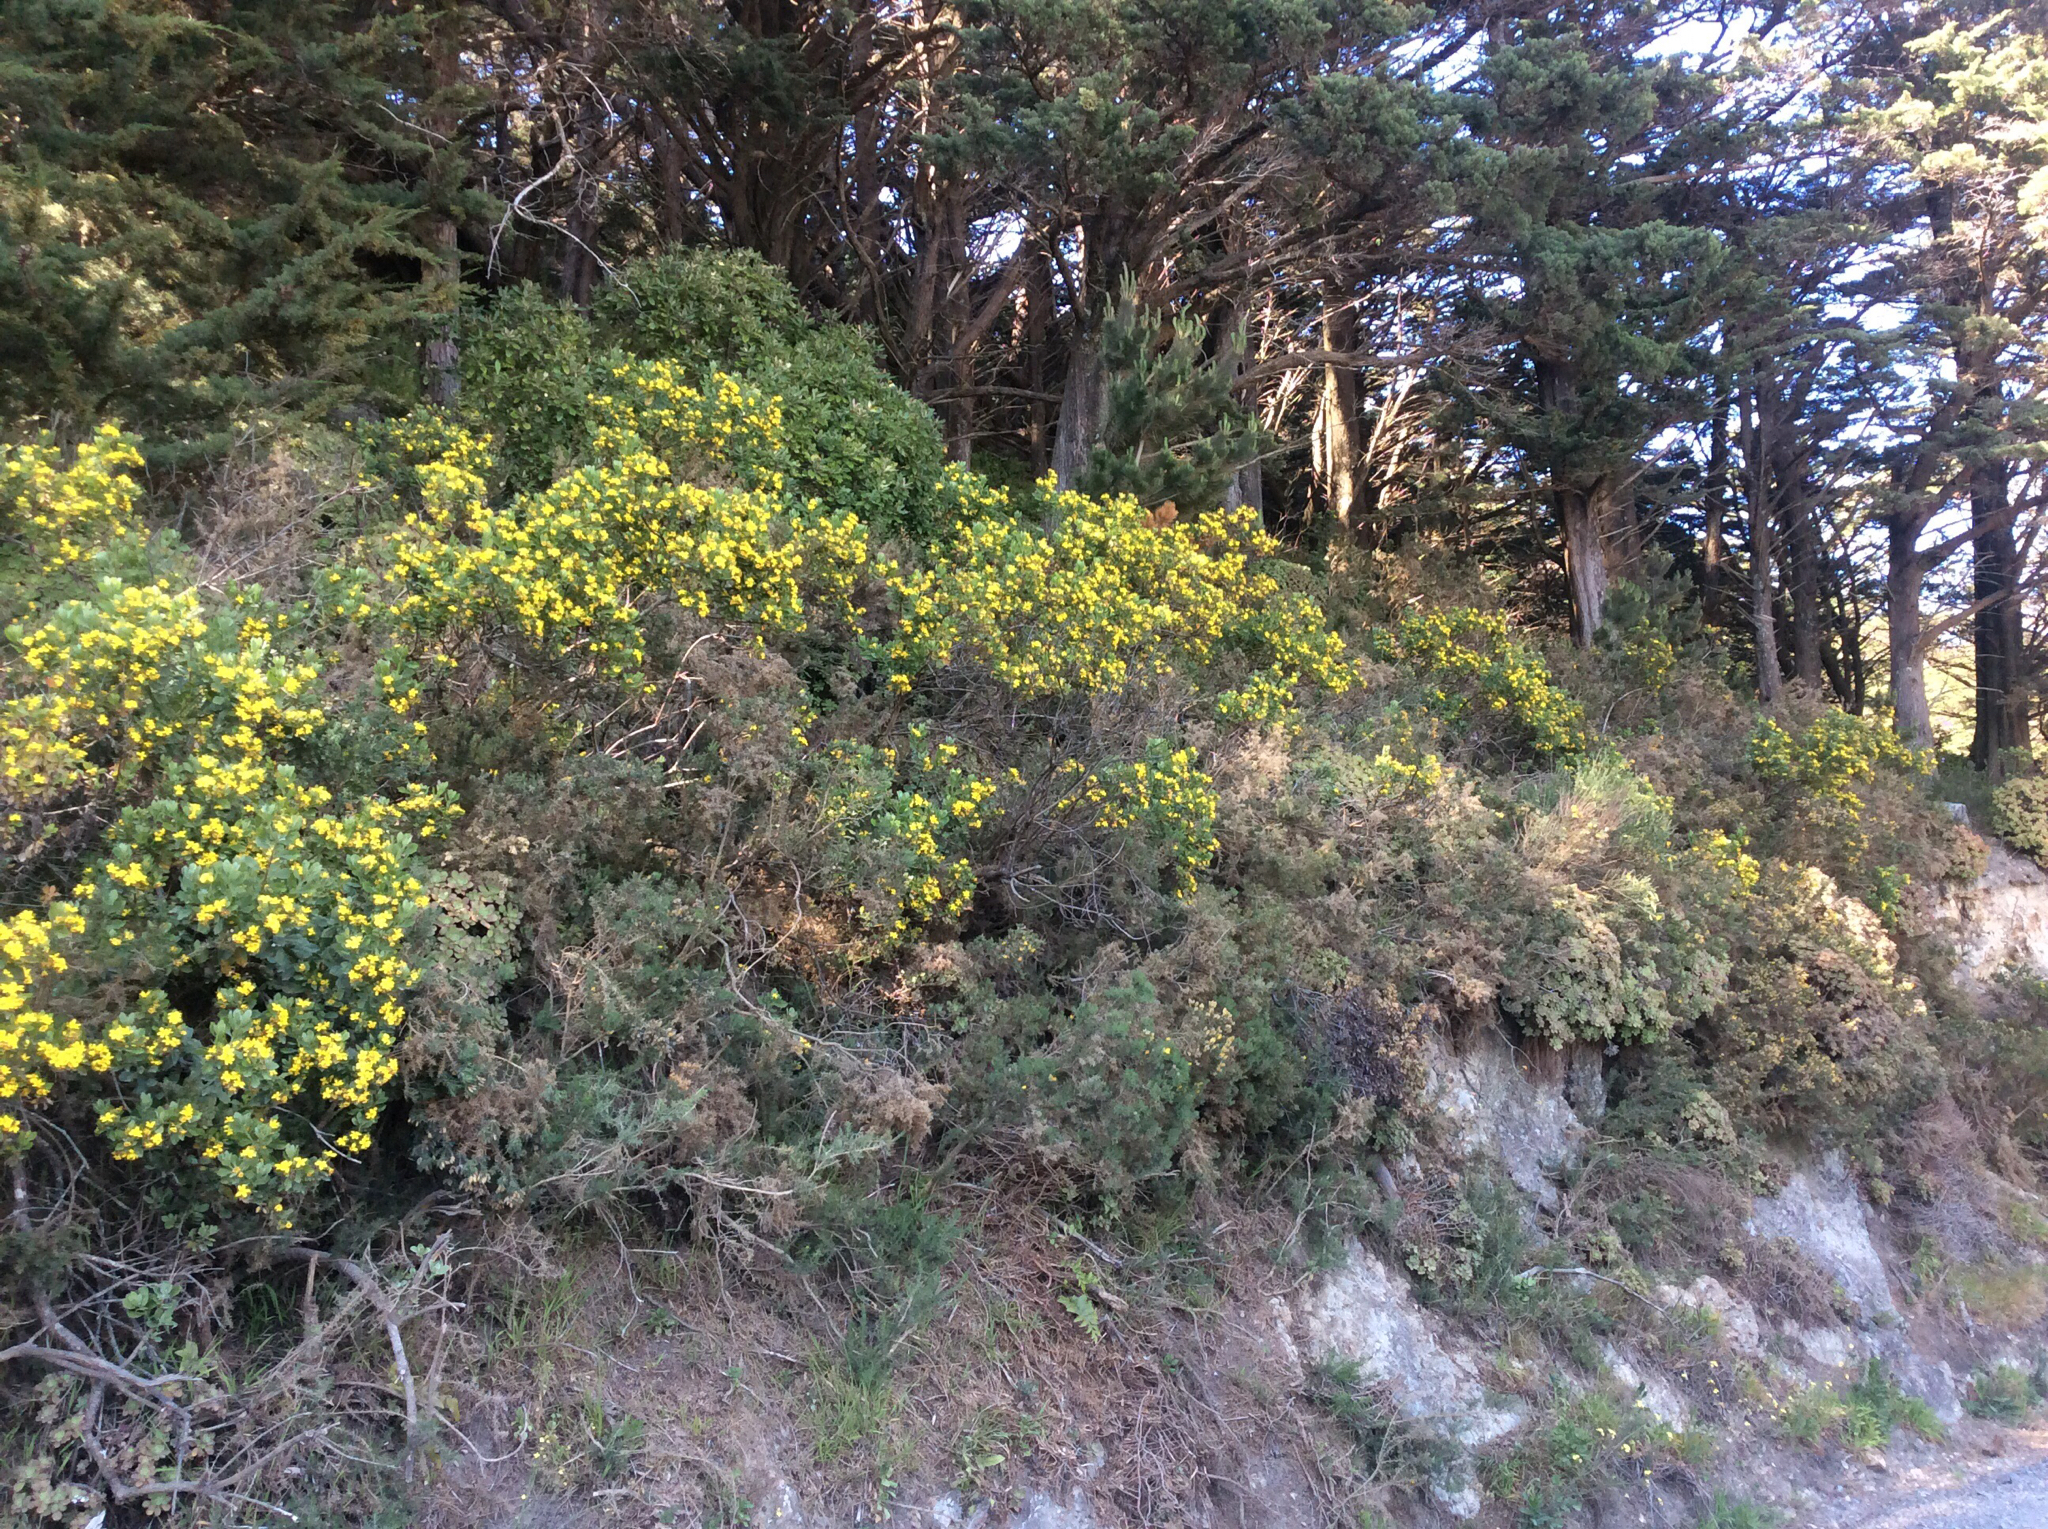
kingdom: Plantae
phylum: Tracheophyta
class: Magnoliopsida
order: Asterales
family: Asteraceae
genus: Osteospermum
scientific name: Osteospermum moniliferum
